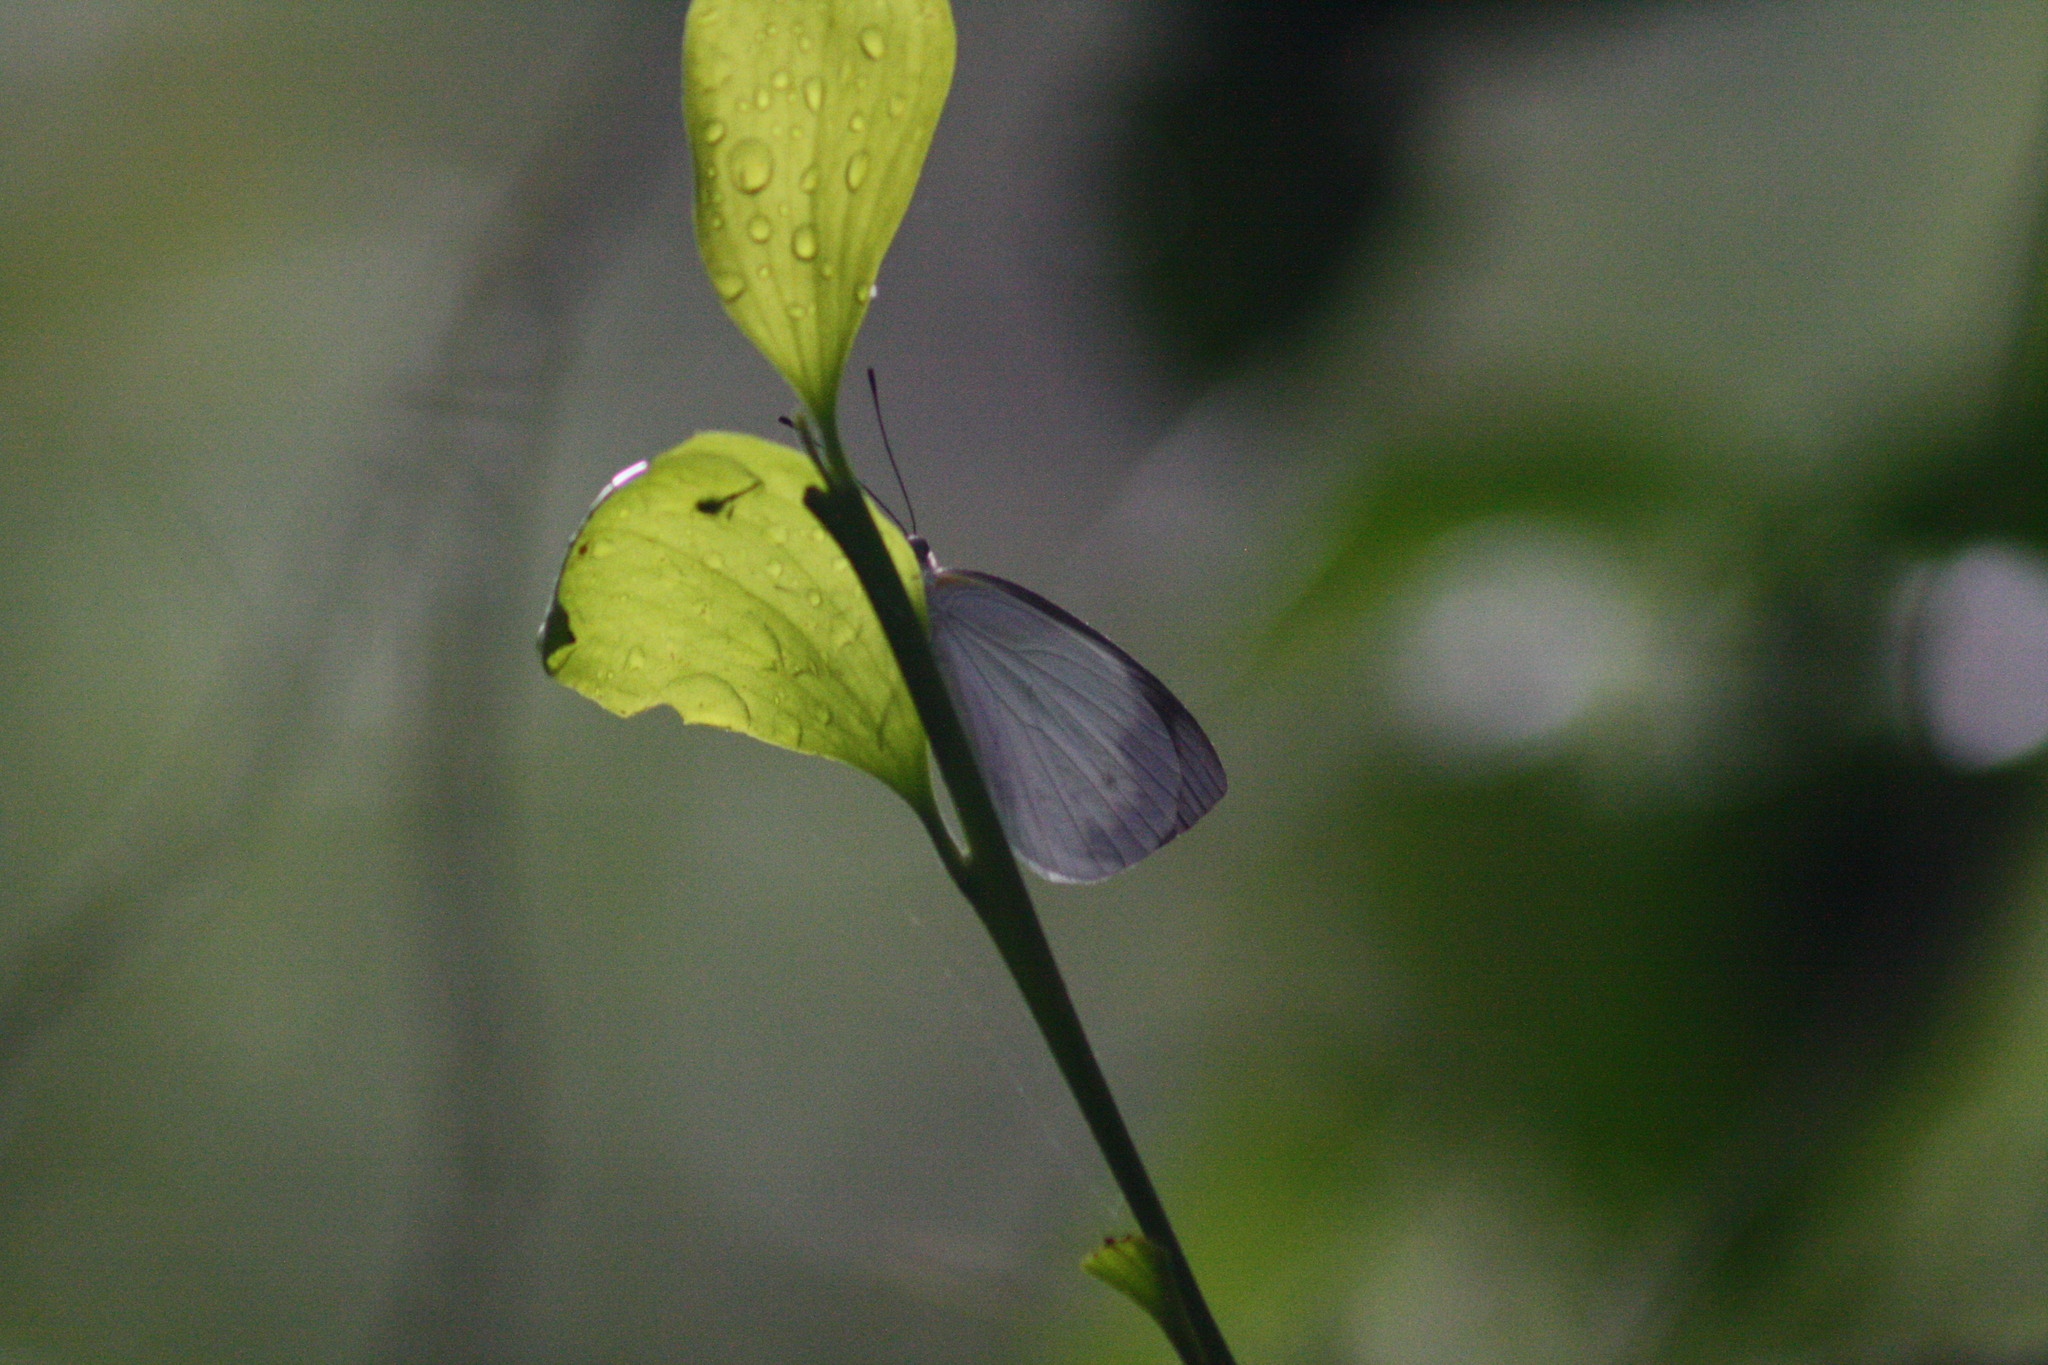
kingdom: Animalia
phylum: Arthropoda
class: Insecta
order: Lepidoptera
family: Pieridae
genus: Elodina
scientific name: Elodina queenslandica
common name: Glistening pearl-white
